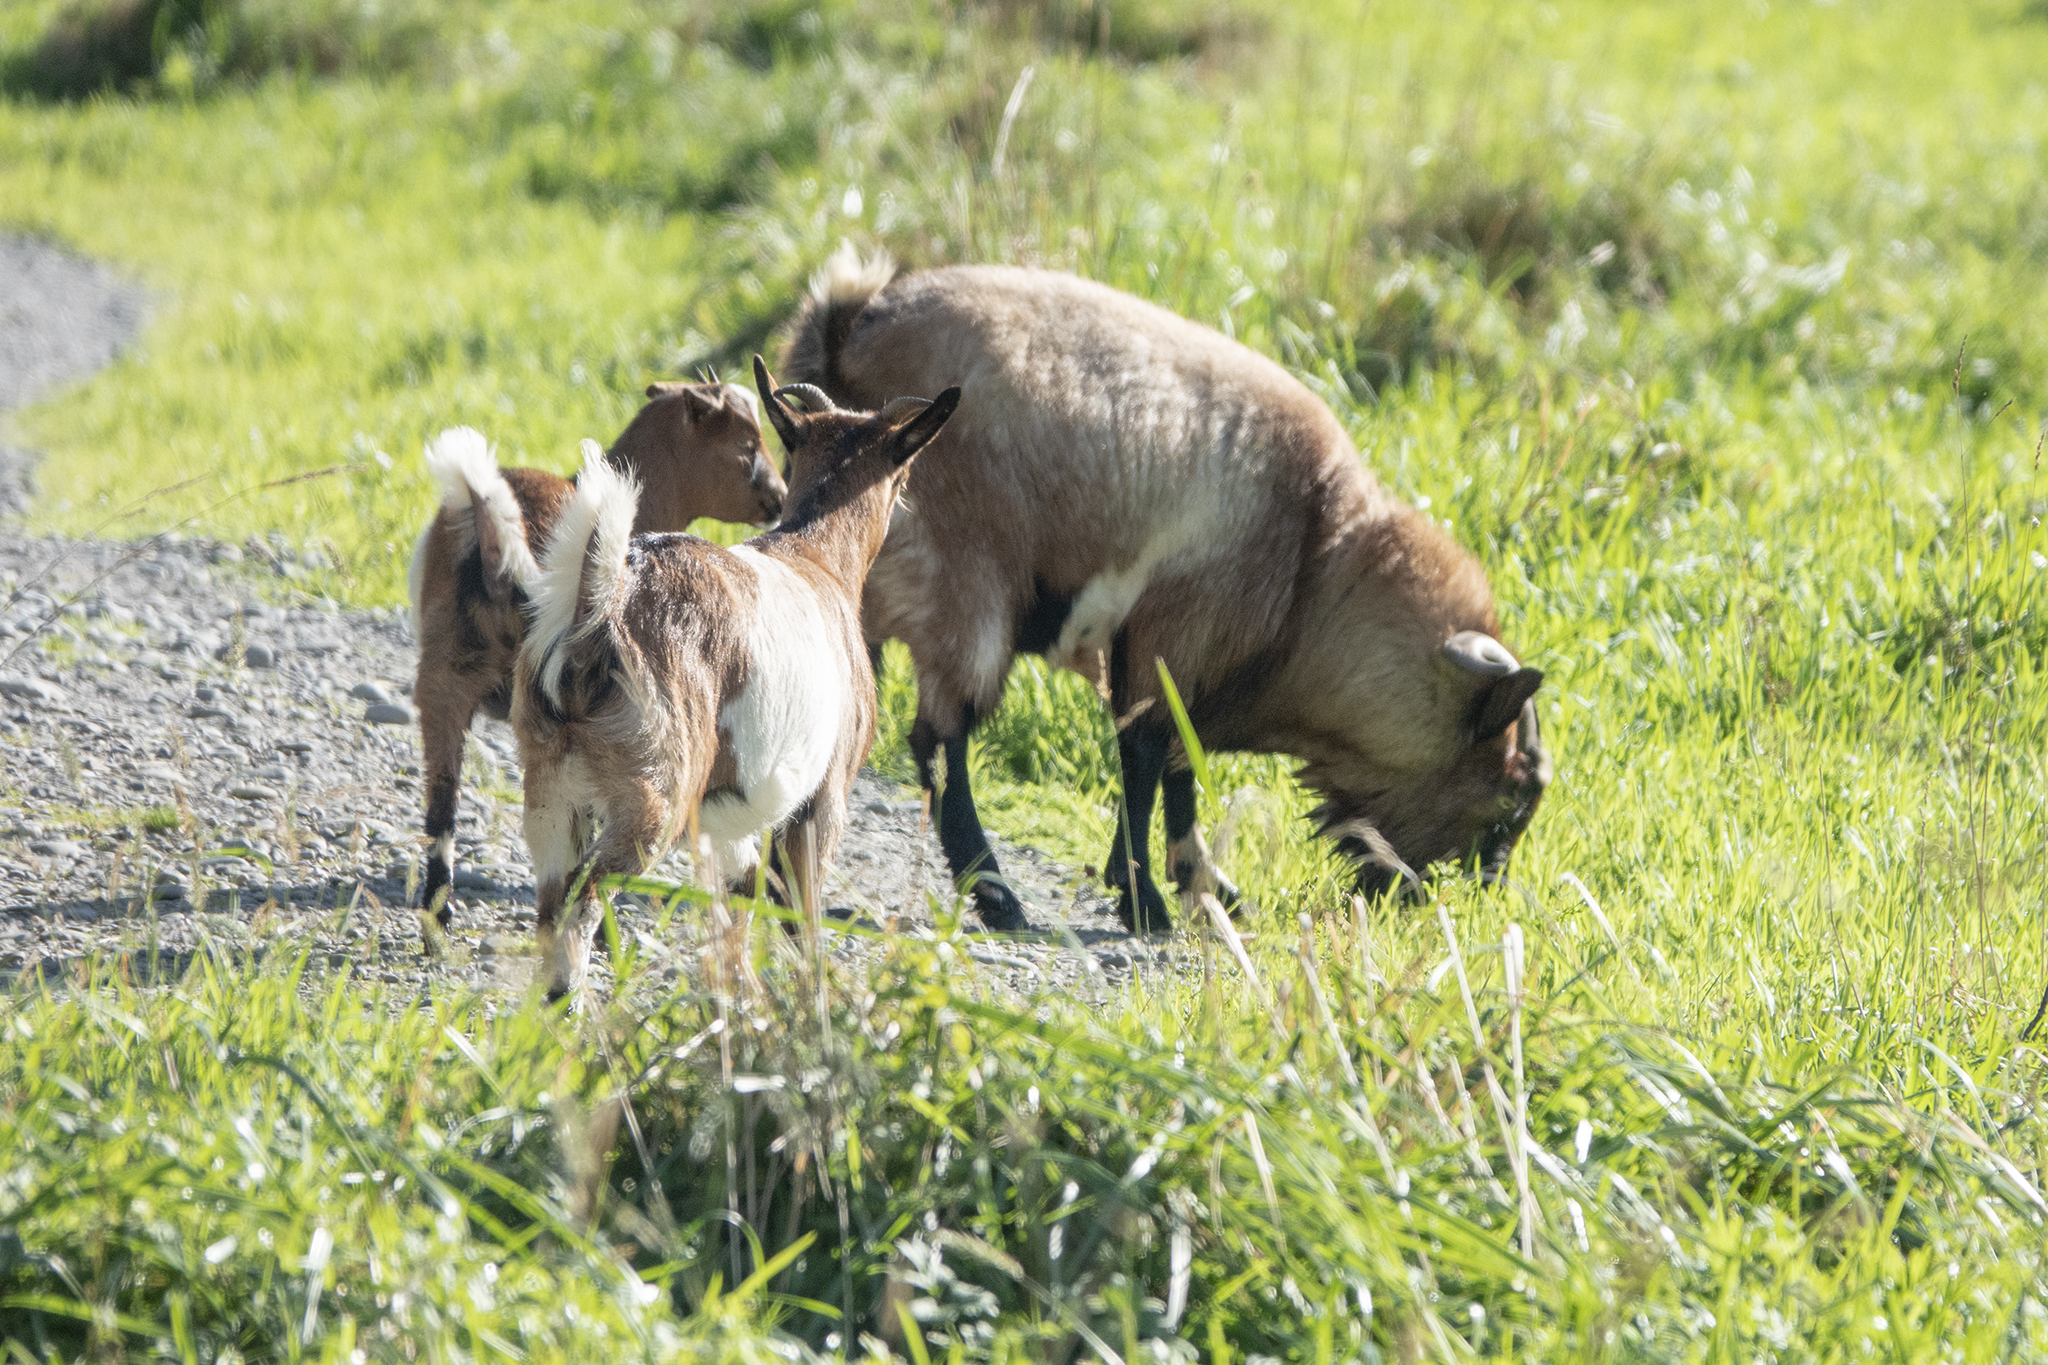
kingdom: Animalia
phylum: Chordata
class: Mammalia
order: Artiodactyla
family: Bovidae
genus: Capra
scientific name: Capra hircus
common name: Domestic goat
